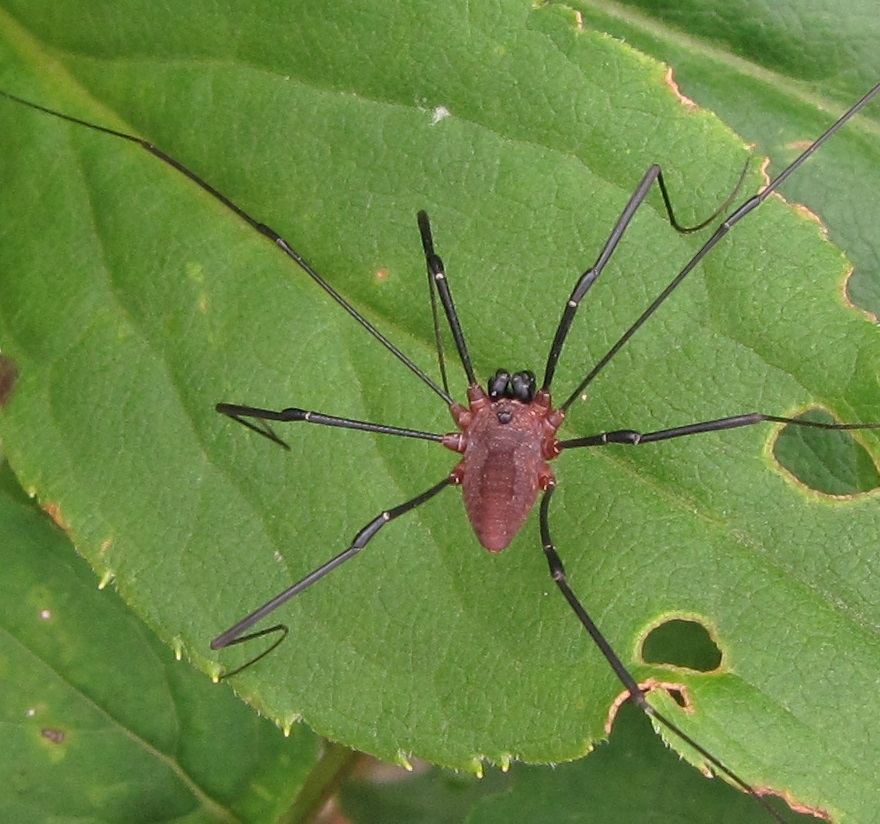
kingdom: Animalia
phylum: Arthropoda
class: Arachnida
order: Opiliones
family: Sclerosomatidae
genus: Leiobunum
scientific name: Leiobunum calcar
